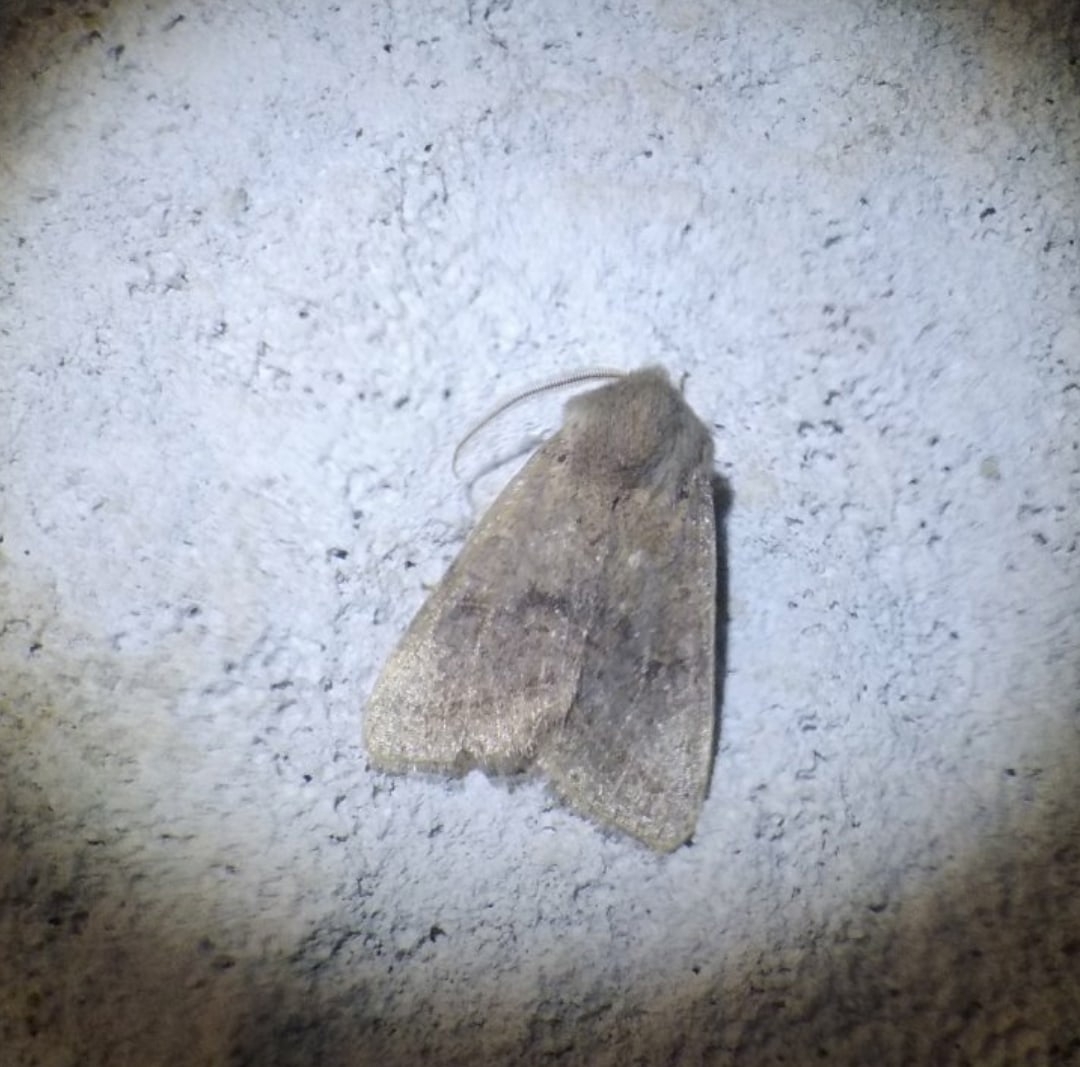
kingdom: Animalia
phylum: Arthropoda
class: Insecta
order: Lepidoptera
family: Noctuidae
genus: Orthosia
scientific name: Orthosia incerta
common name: Clouded drab
